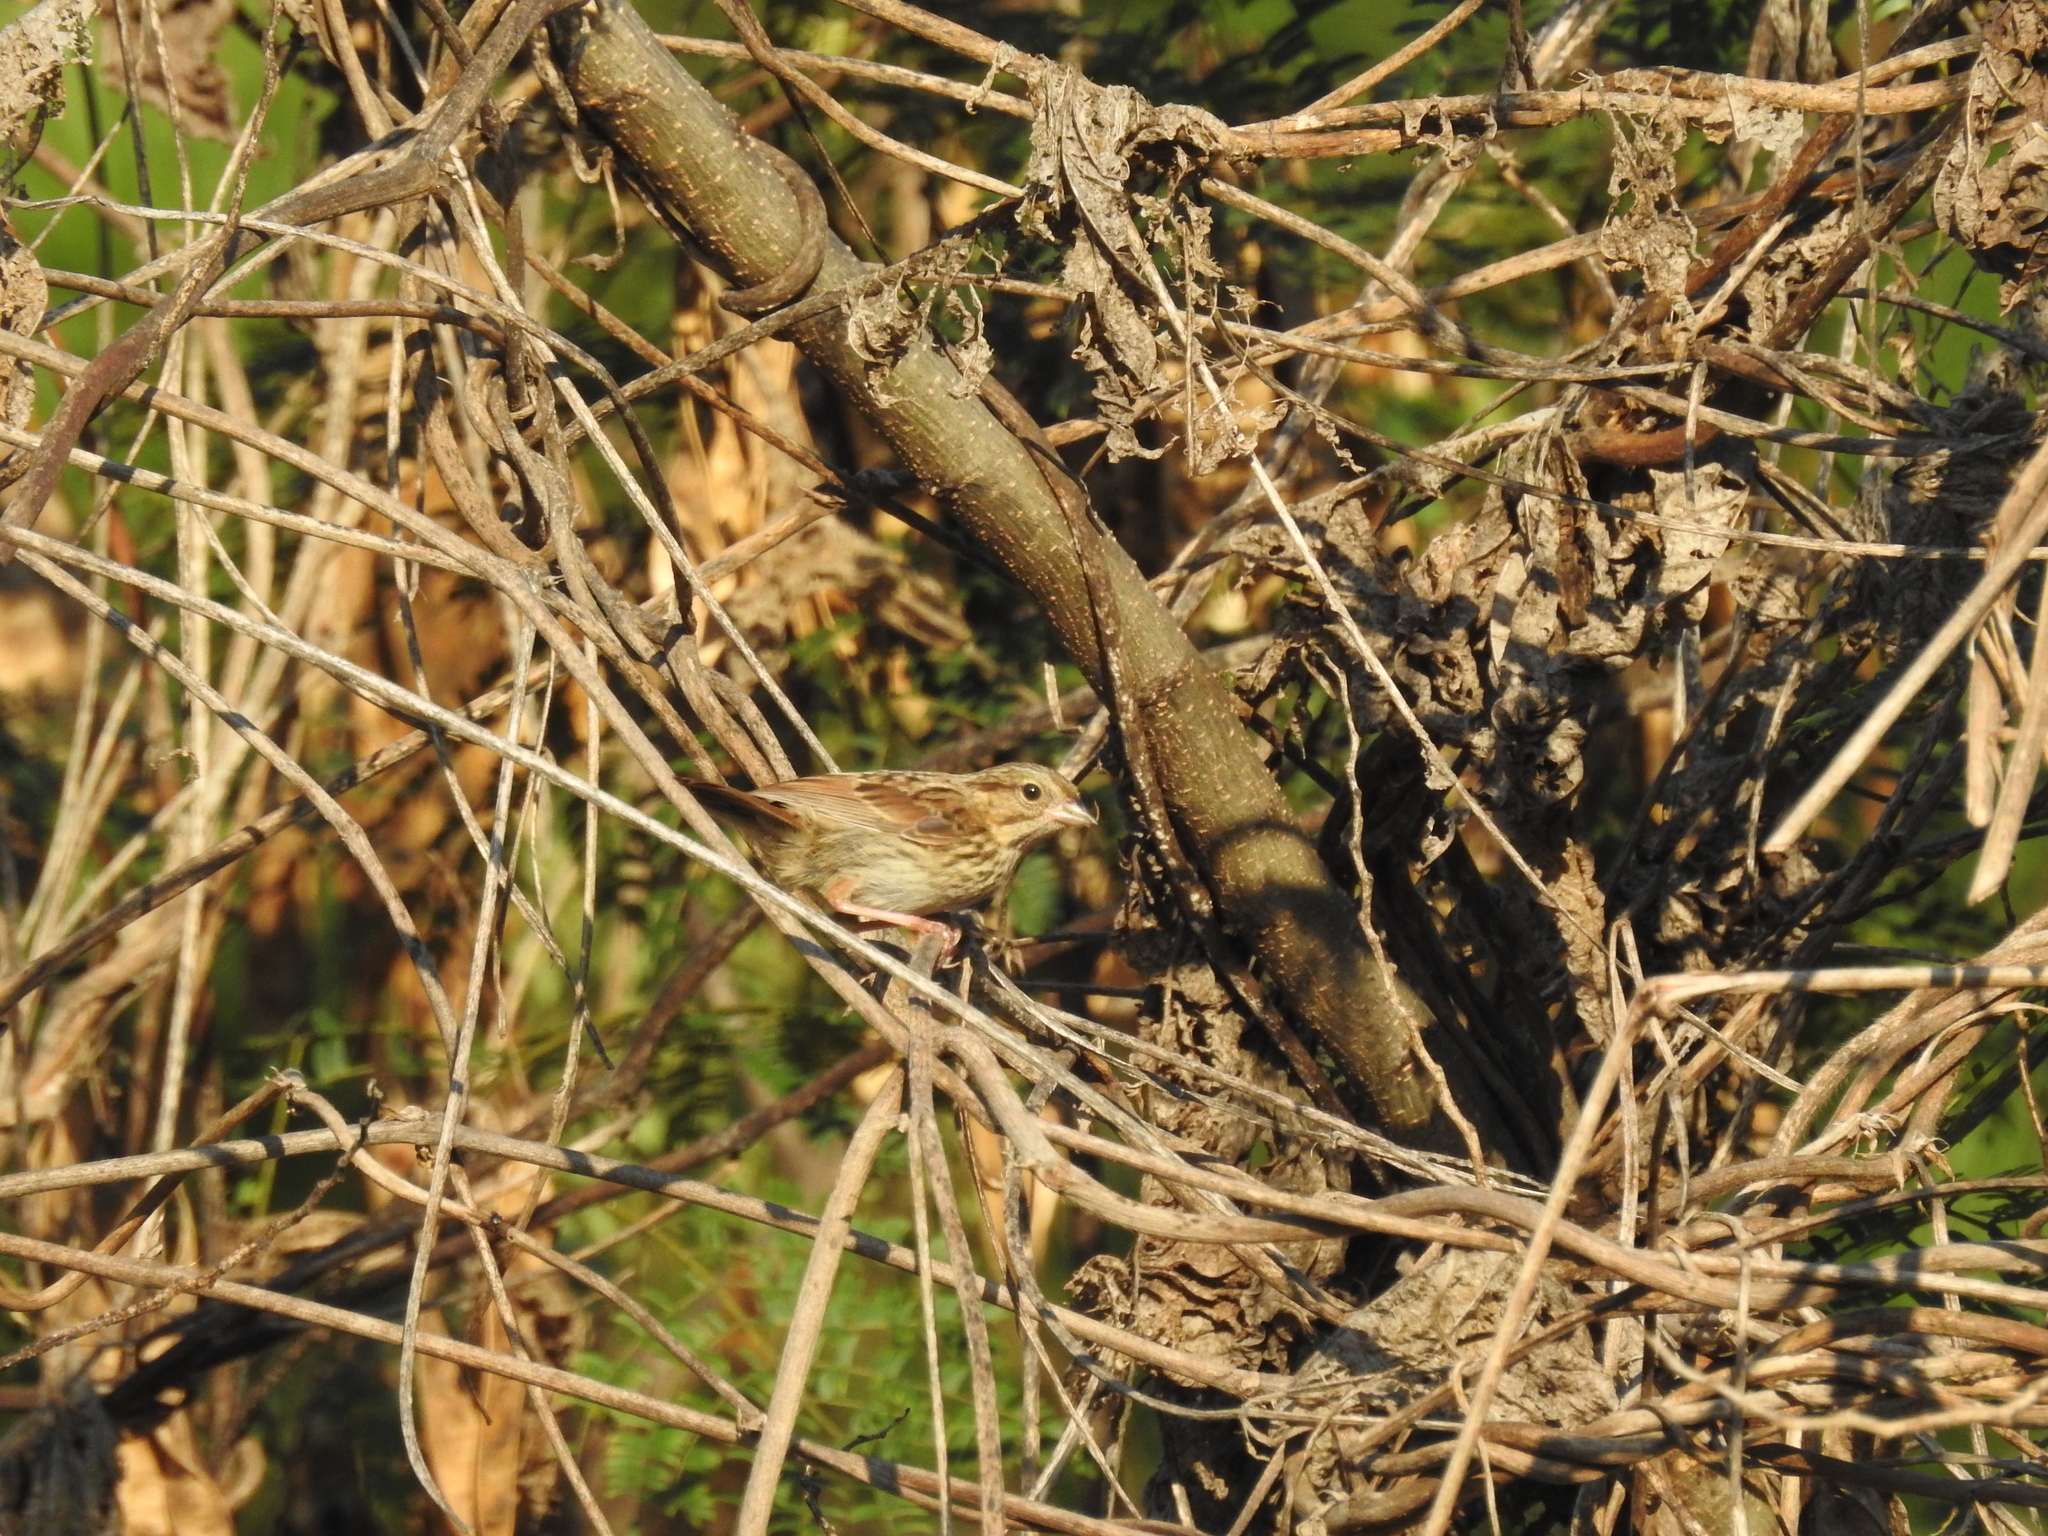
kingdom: Animalia
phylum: Chordata
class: Aves
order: Passeriformes
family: Passerellidae
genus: Melospiza
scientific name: Melospiza melodia
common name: Song sparrow
